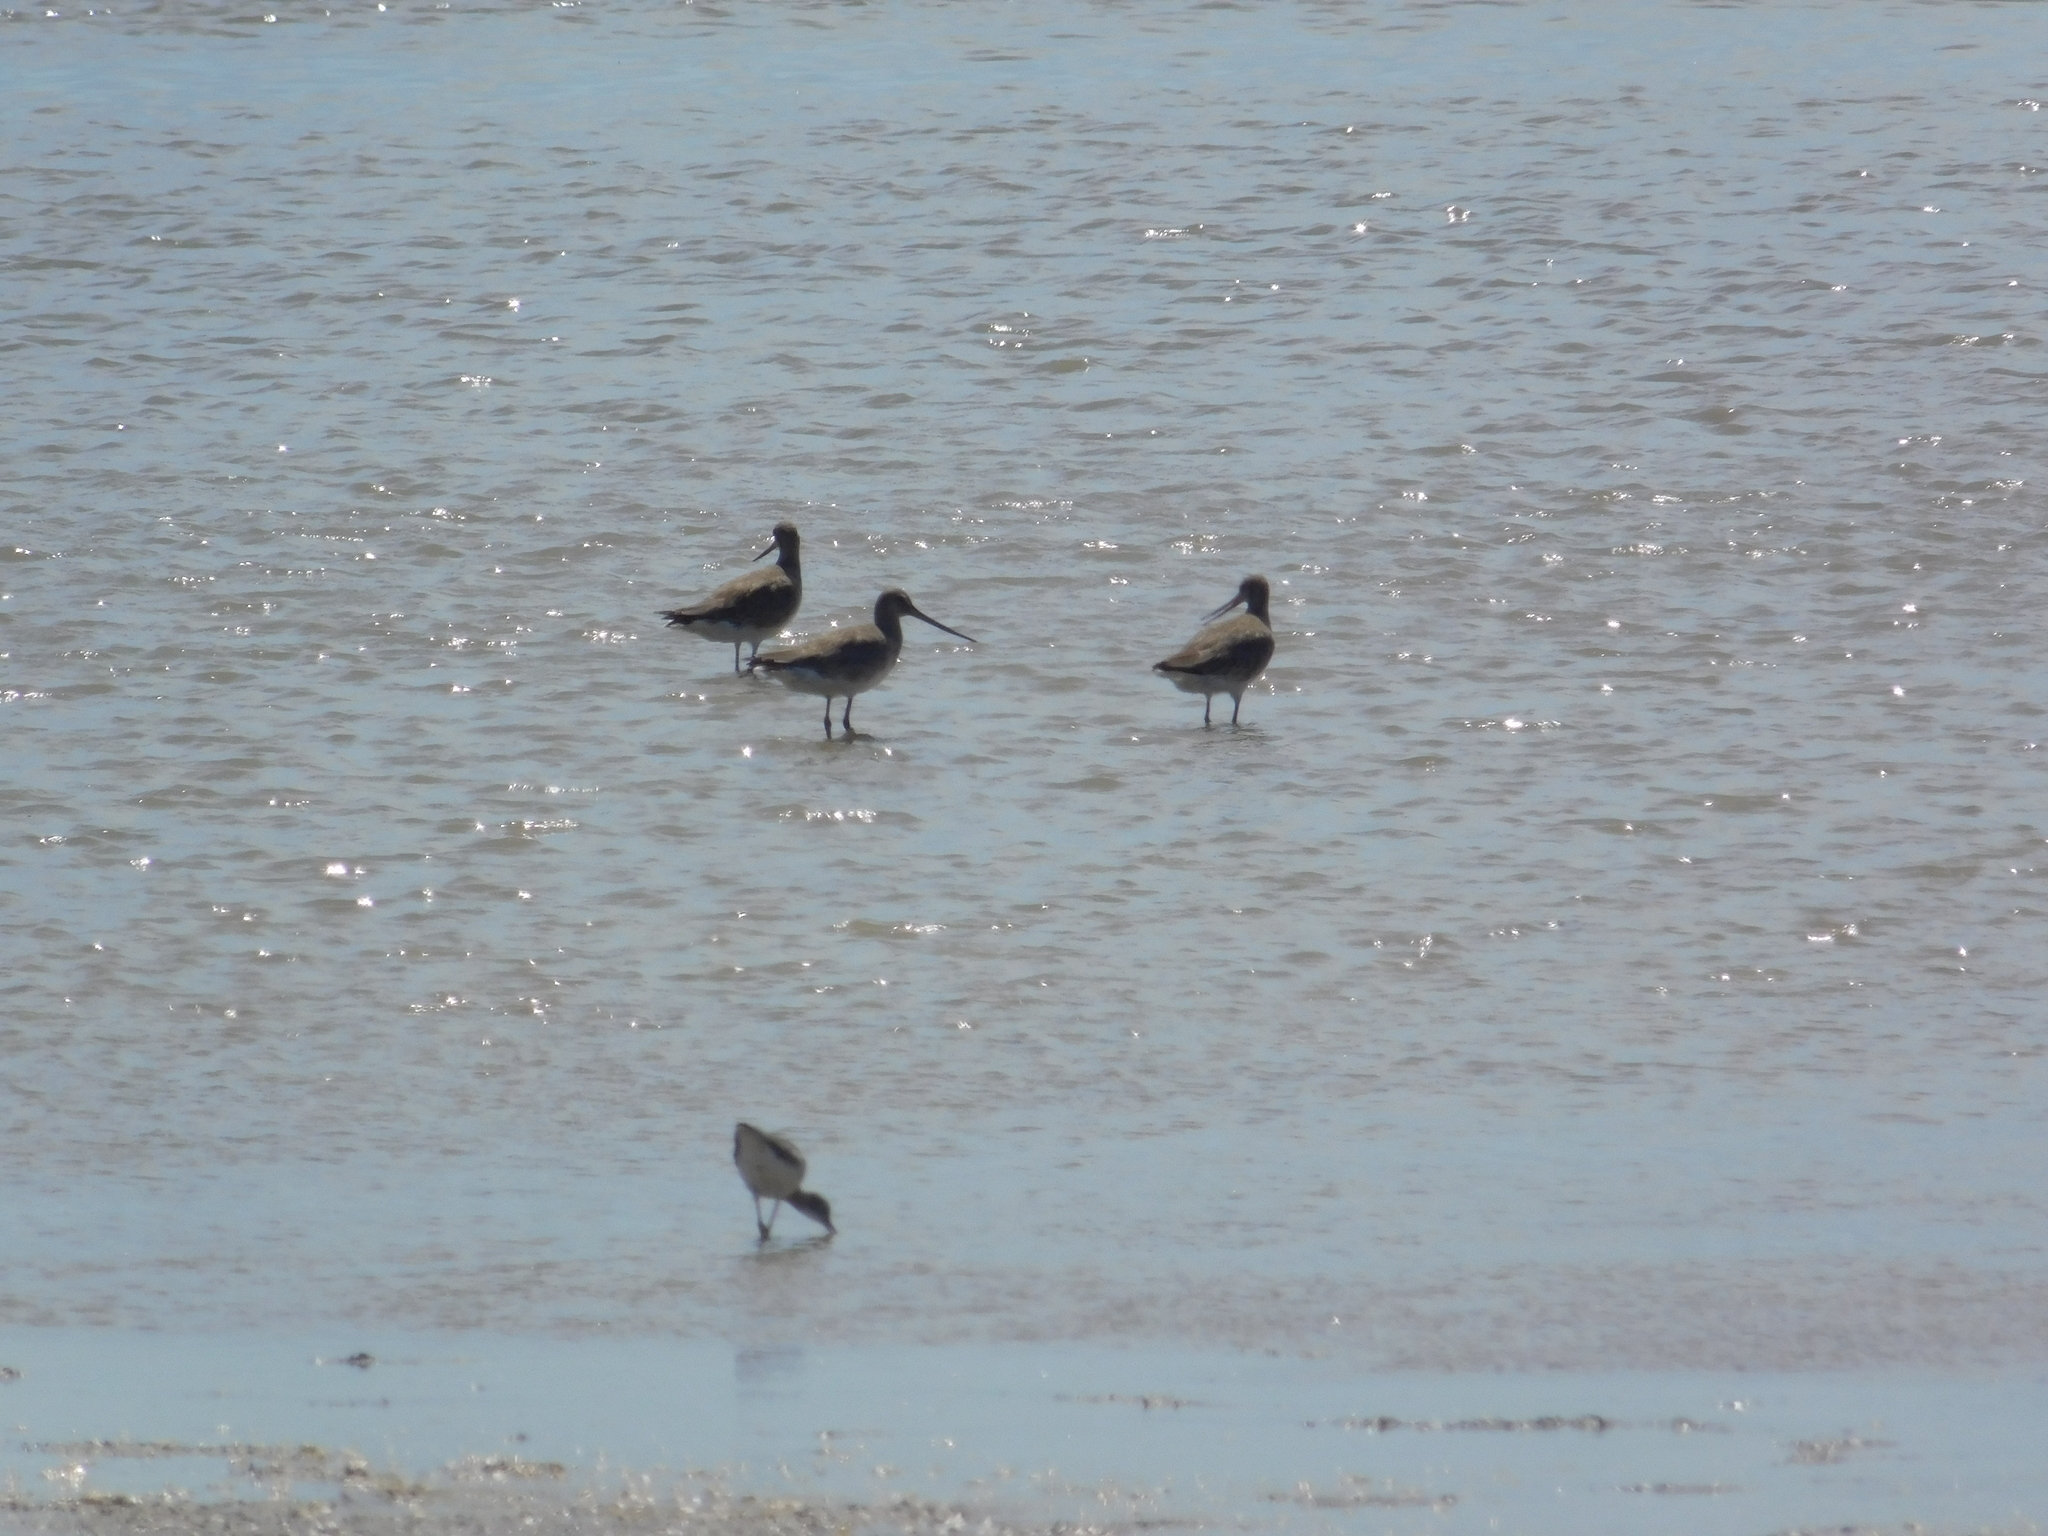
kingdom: Animalia
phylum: Chordata
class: Aves
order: Charadriiformes
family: Scolopacidae
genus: Limosa
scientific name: Limosa haemastica
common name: Hudsonian godwit
